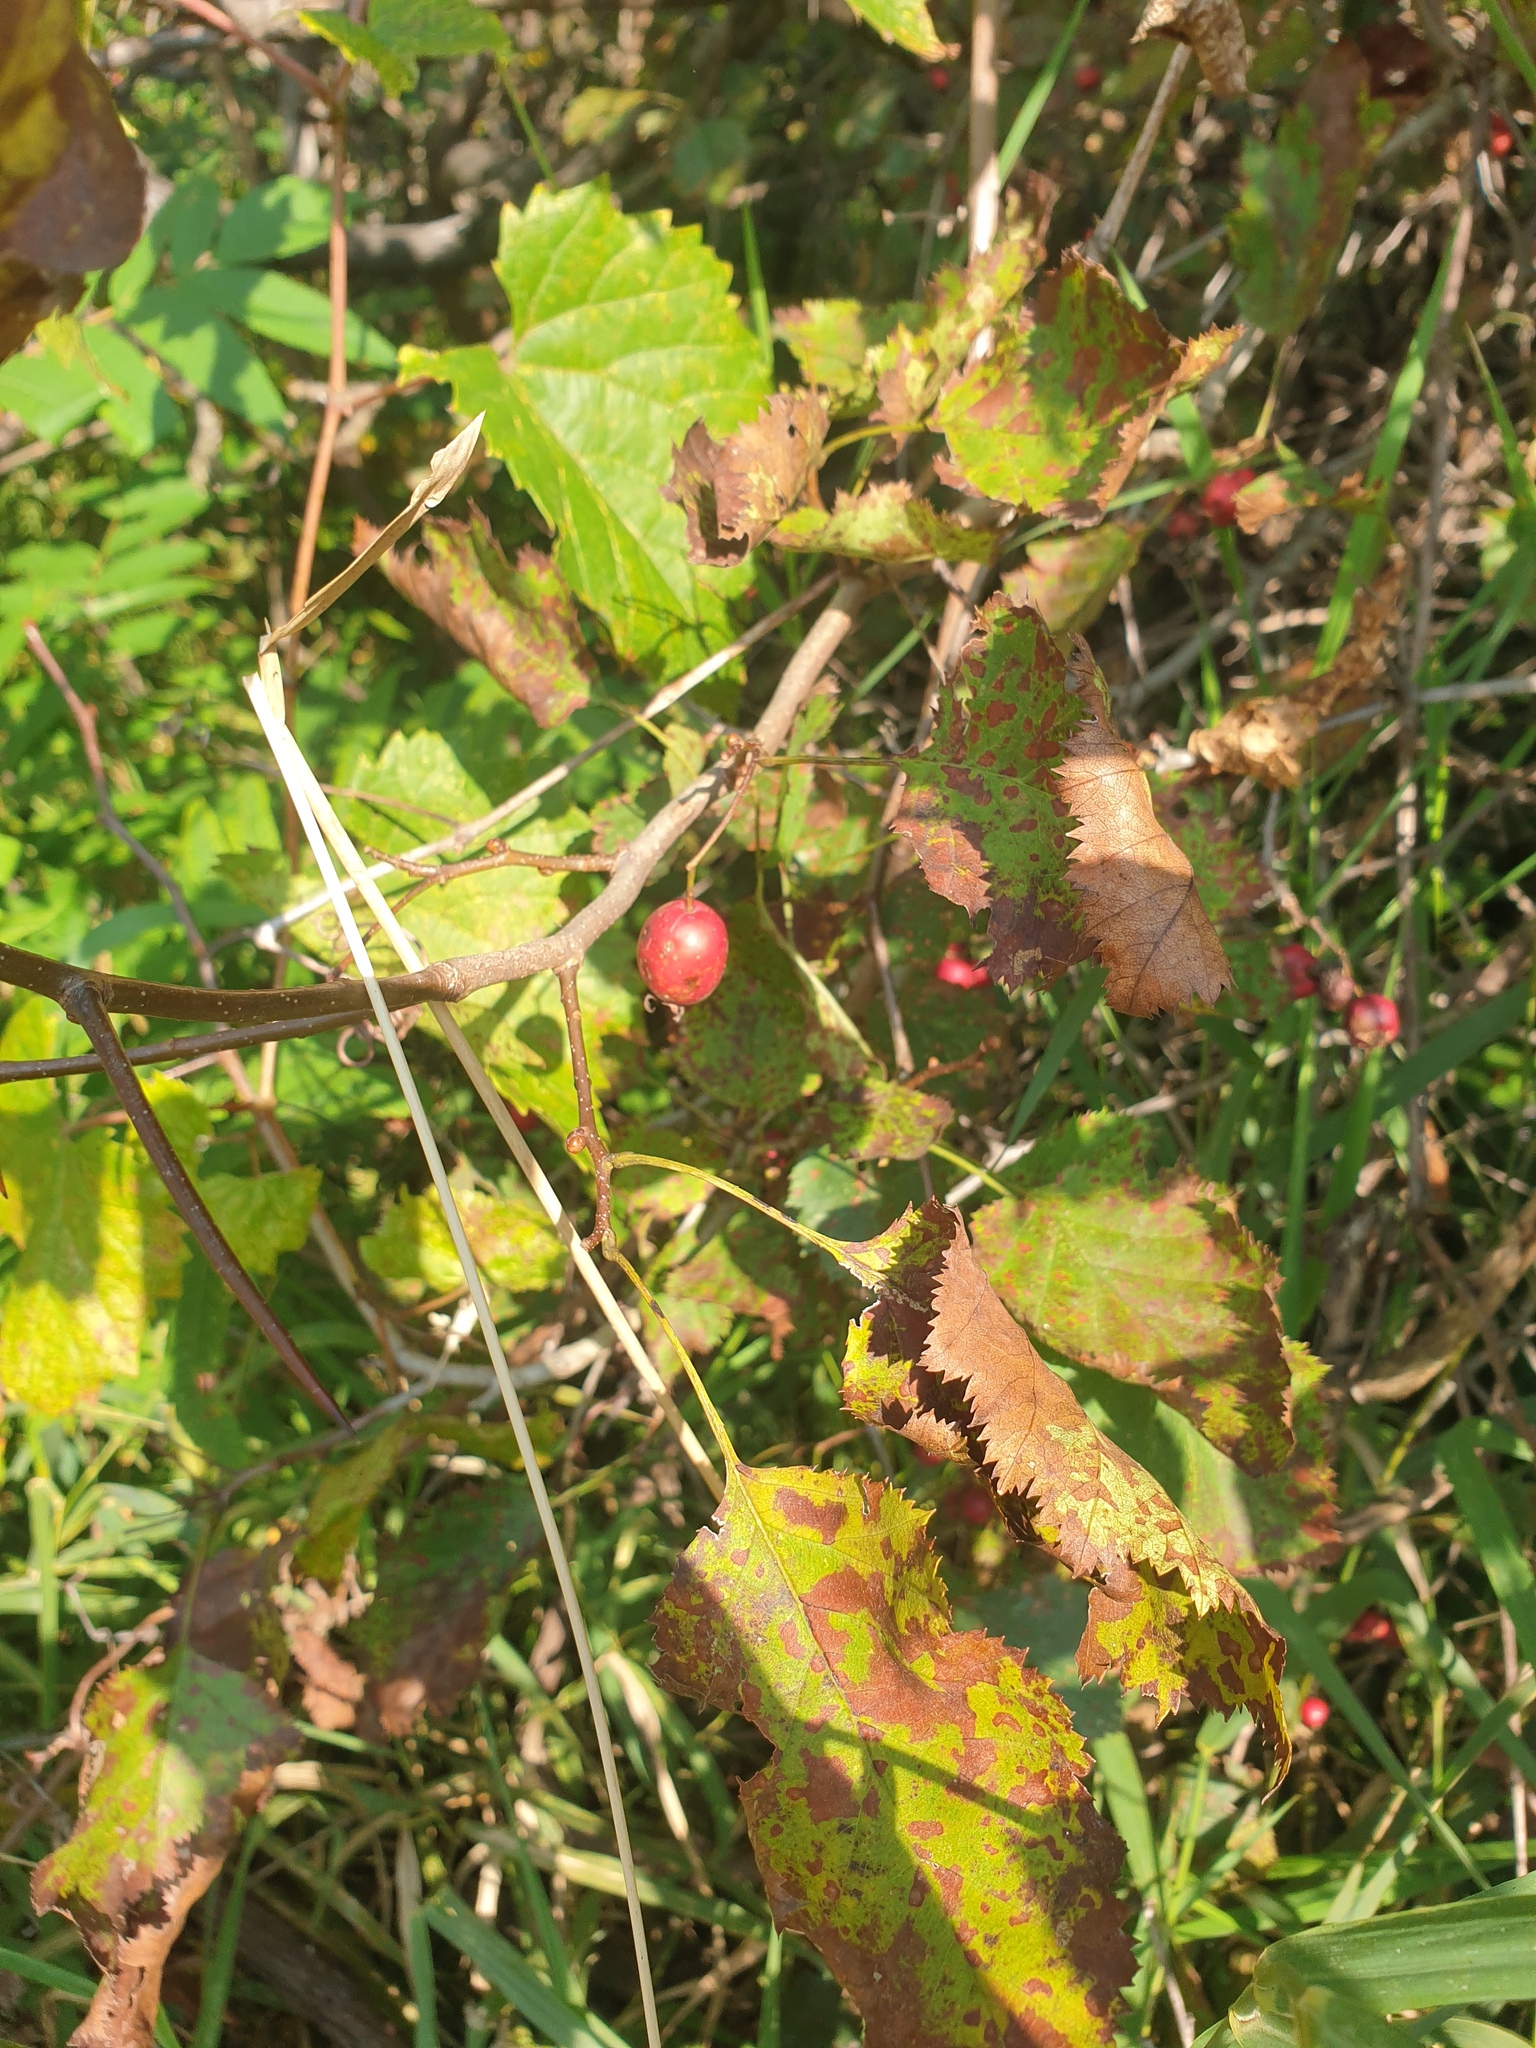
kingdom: Plantae
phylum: Tracheophyta
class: Magnoliopsida
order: Rosales
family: Rosaceae
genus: Crataegus
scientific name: Crataegus holmesiana
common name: Holmes' hawthorn
